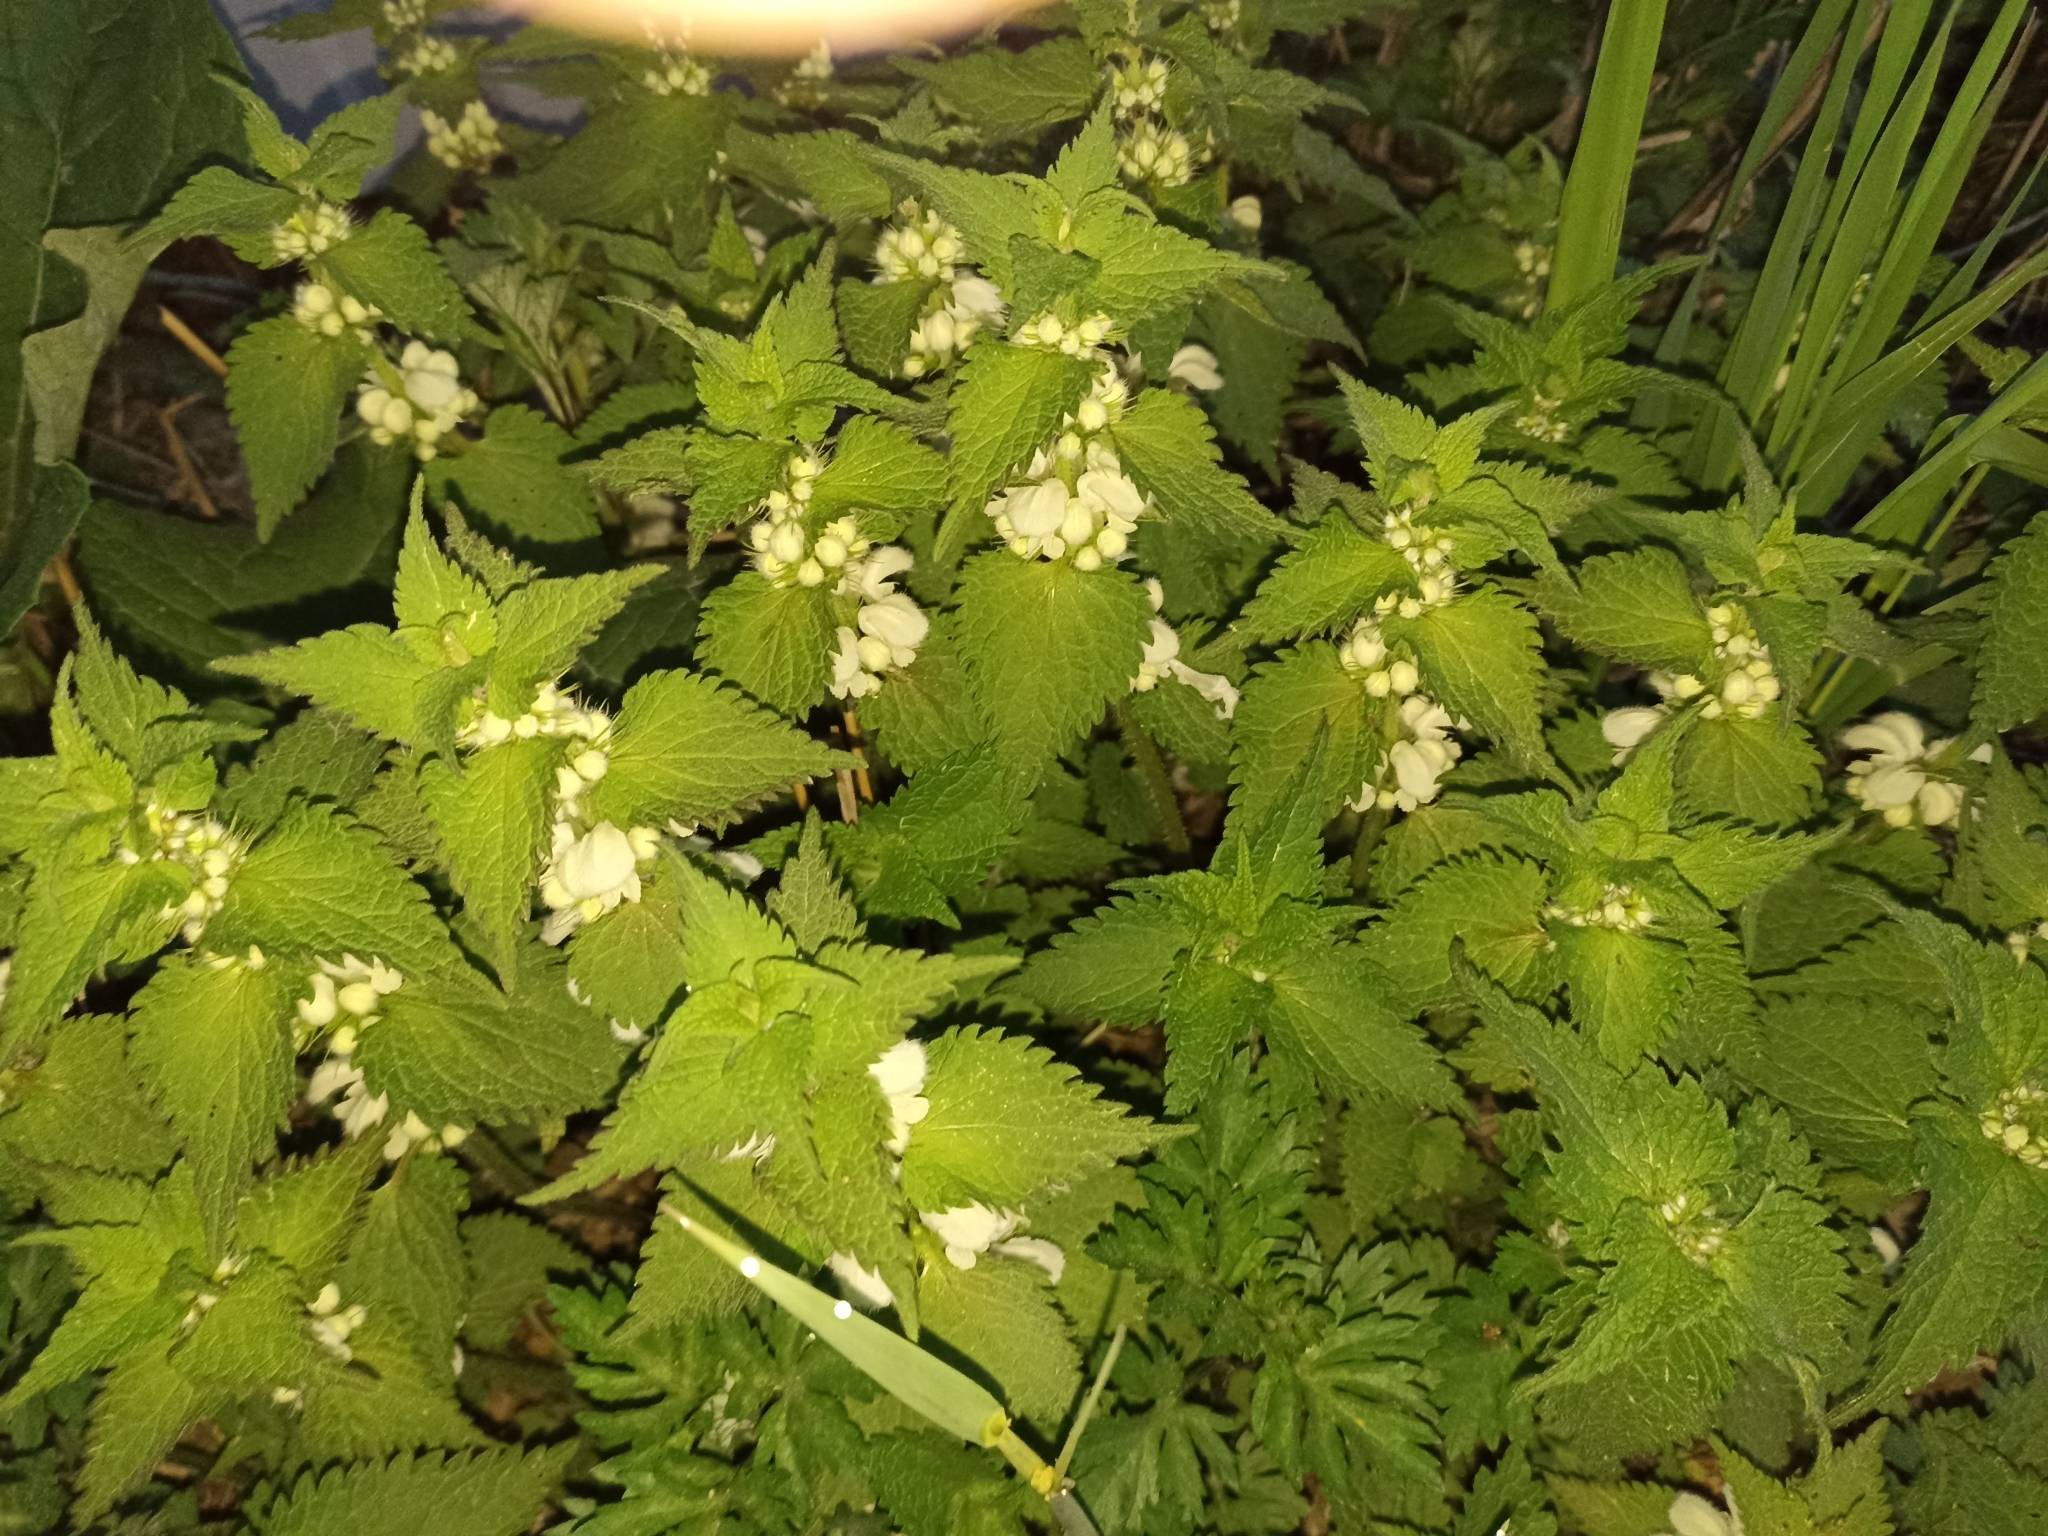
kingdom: Plantae
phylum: Tracheophyta
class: Magnoliopsida
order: Lamiales
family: Lamiaceae
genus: Lamium
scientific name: Lamium album
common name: White dead-nettle
